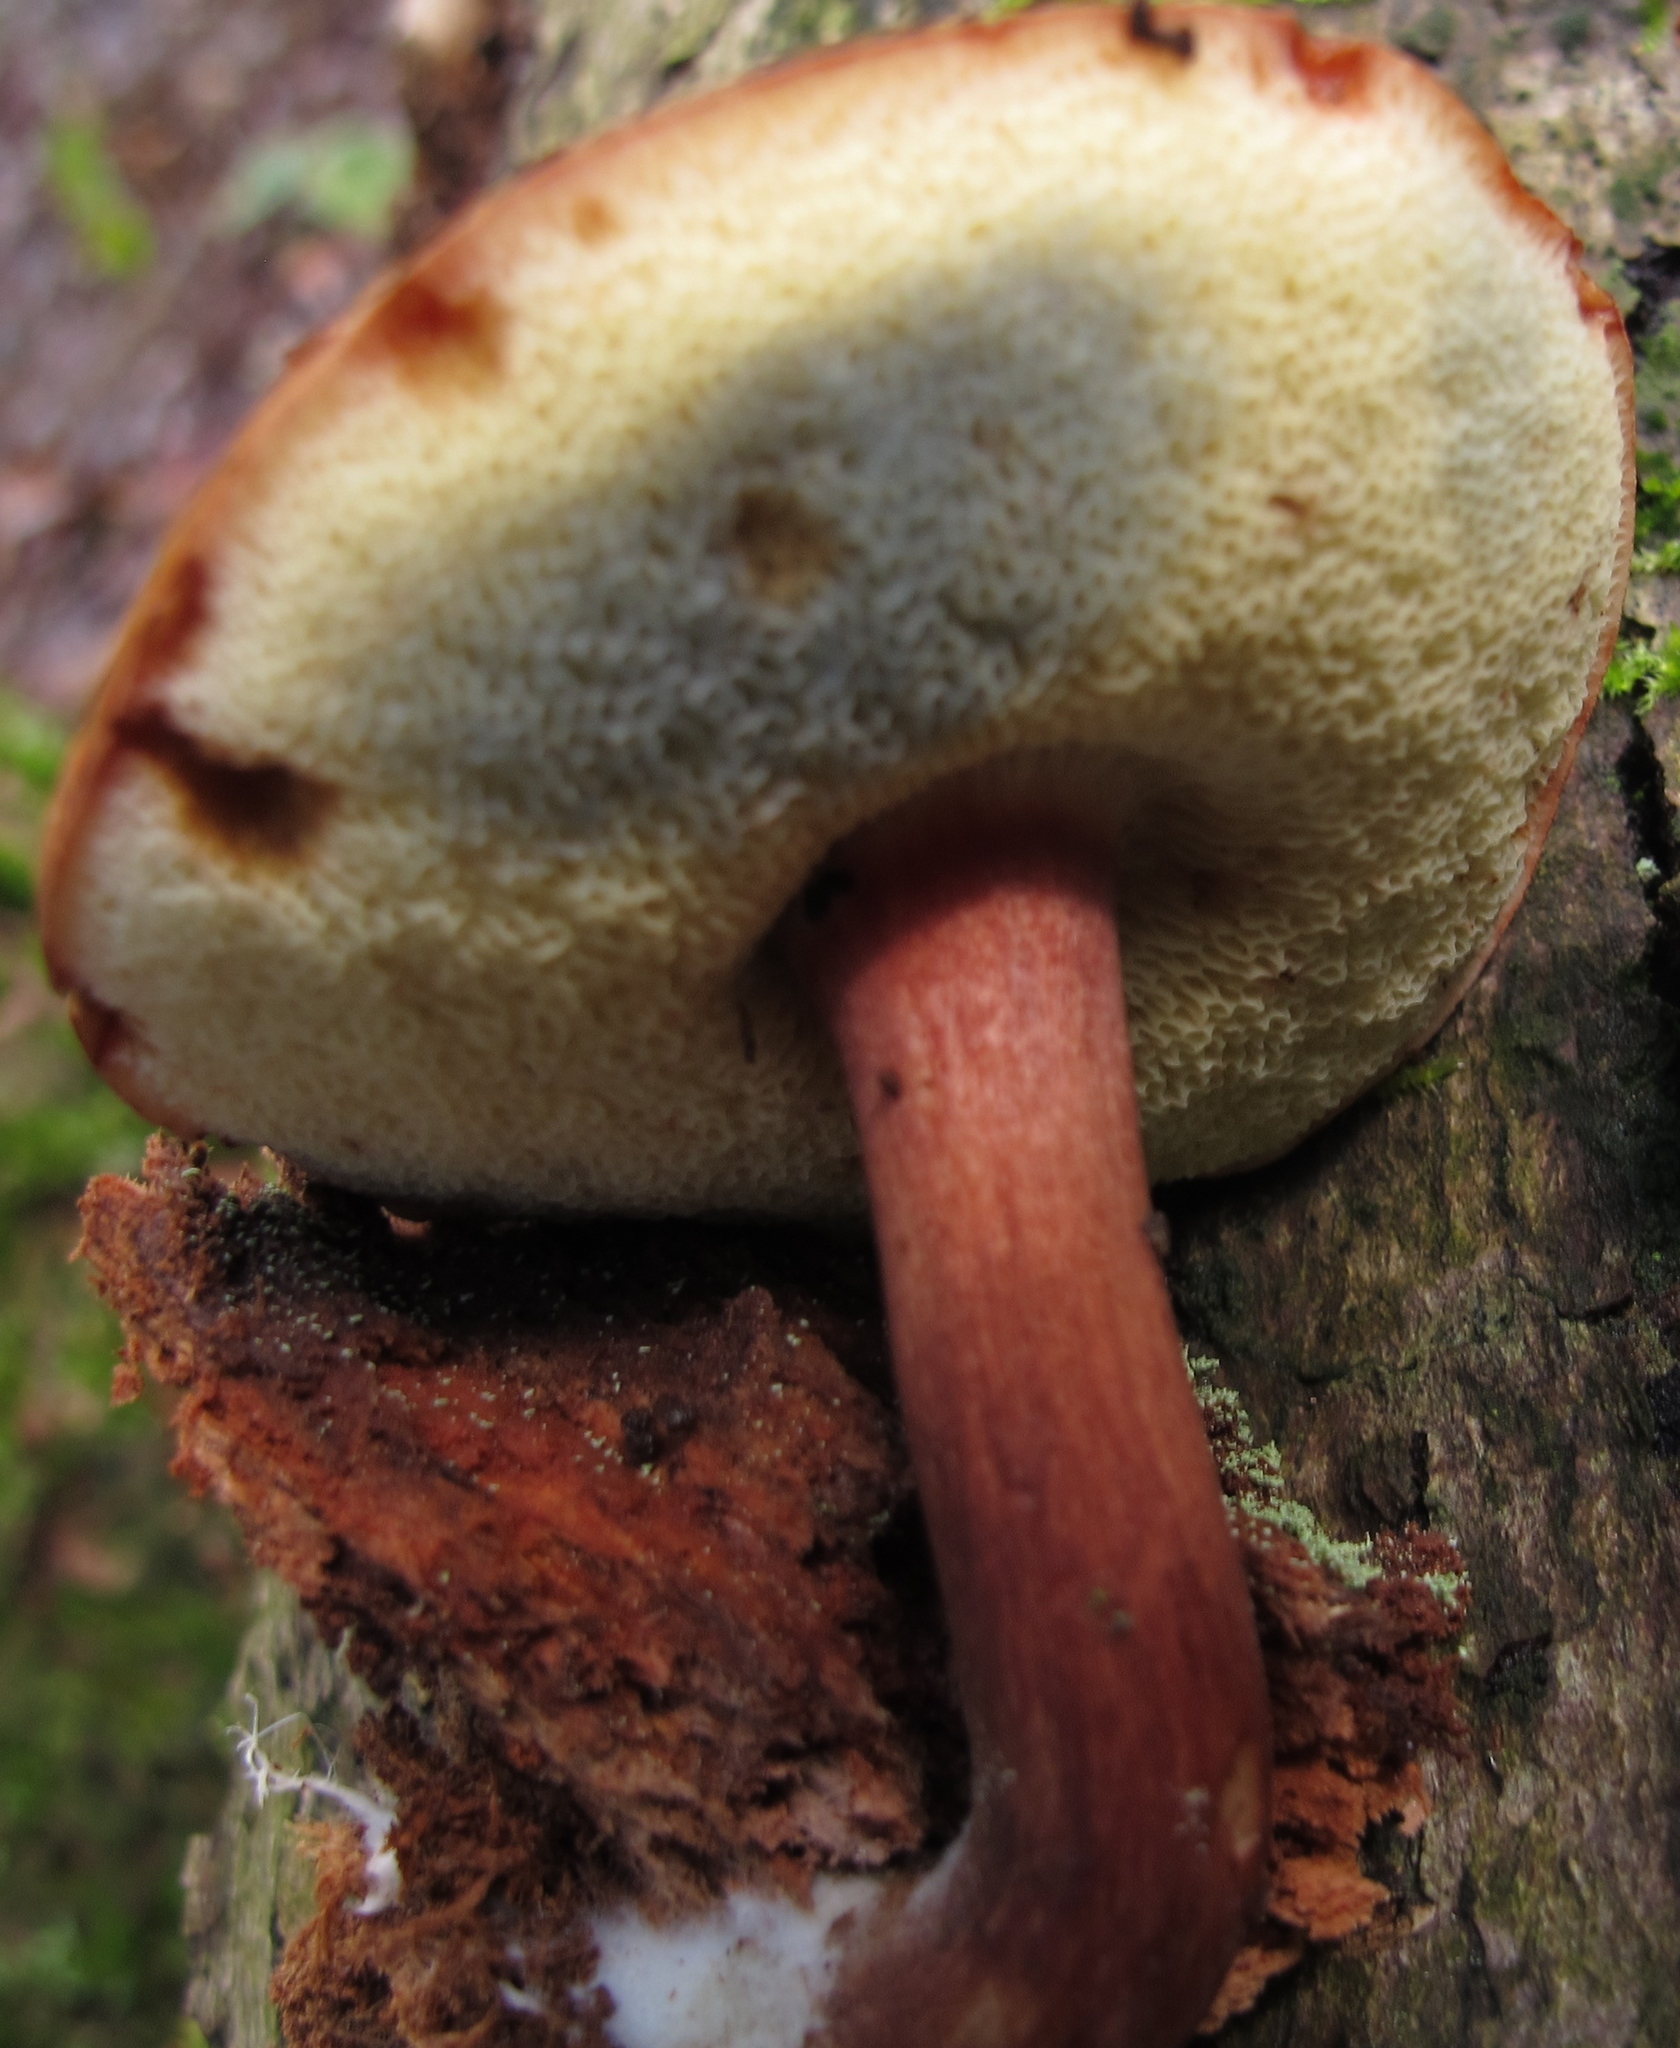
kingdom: Fungi
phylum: Basidiomycota
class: Agaricomycetes
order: Boletales
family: Boletaceae
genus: Imleria
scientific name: Imleria badia
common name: Bay bolete
